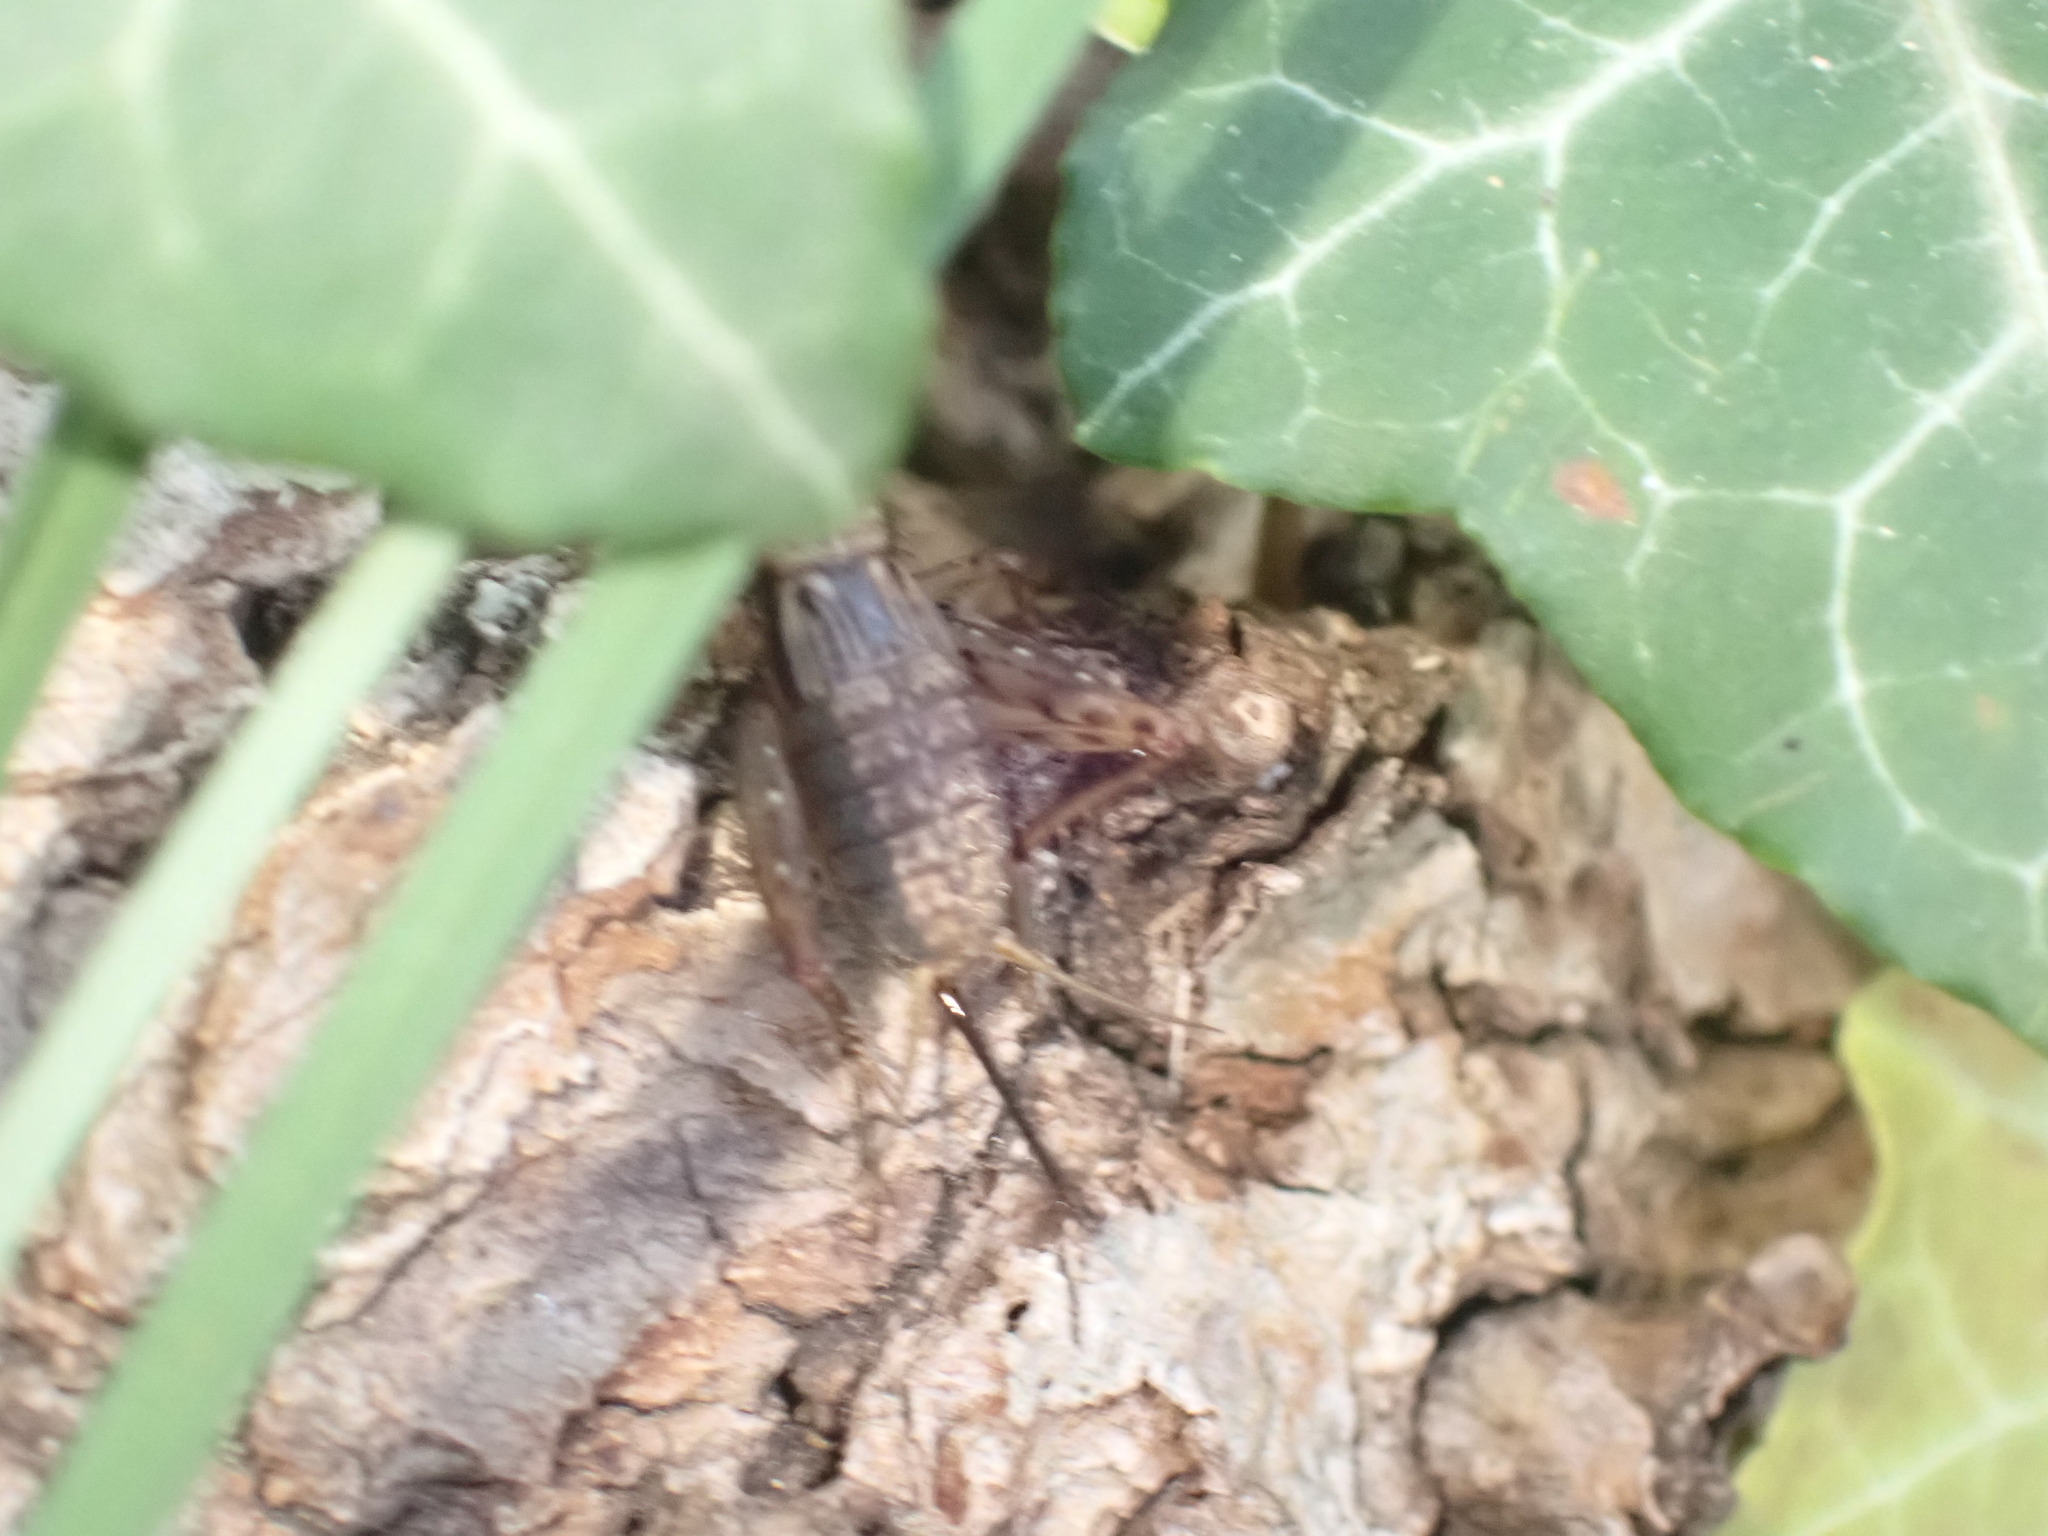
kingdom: Animalia
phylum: Arthropoda
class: Insecta
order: Orthoptera
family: Trigonidiidae
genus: Nemobius
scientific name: Nemobius sylvestris
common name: Wood-cricket
